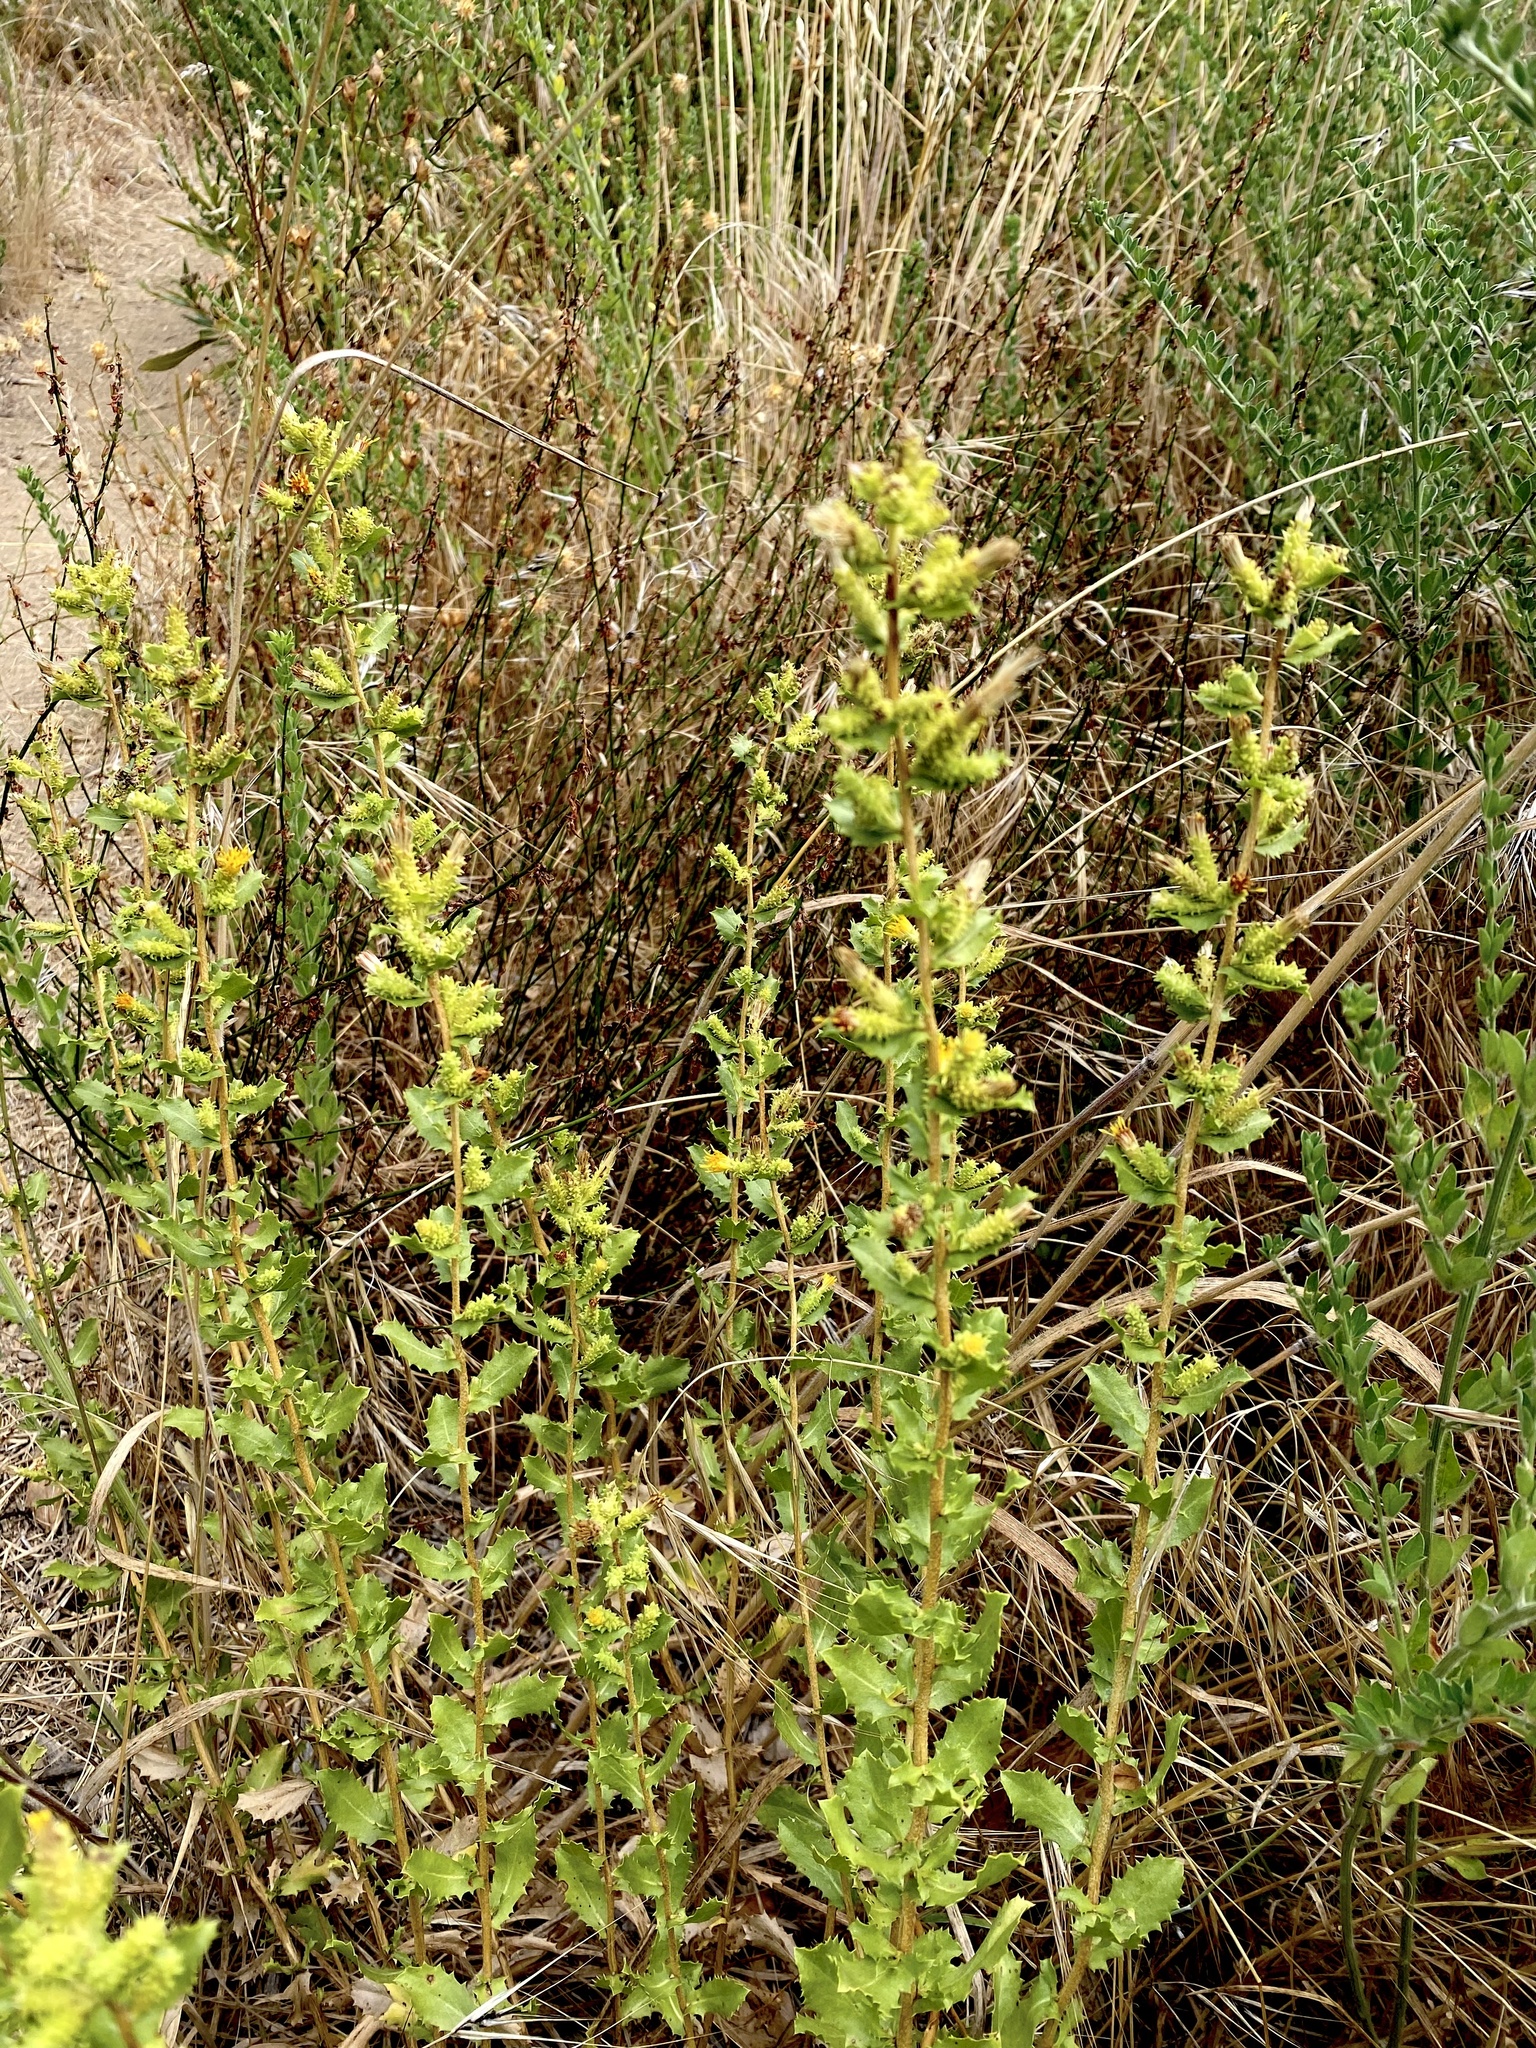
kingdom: Plantae
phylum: Tracheophyta
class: Magnoliopsida
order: Asterales
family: Asteraceae
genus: Hazardia
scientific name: Hazardia squarrosa
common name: Saw-tooth goldenbush
